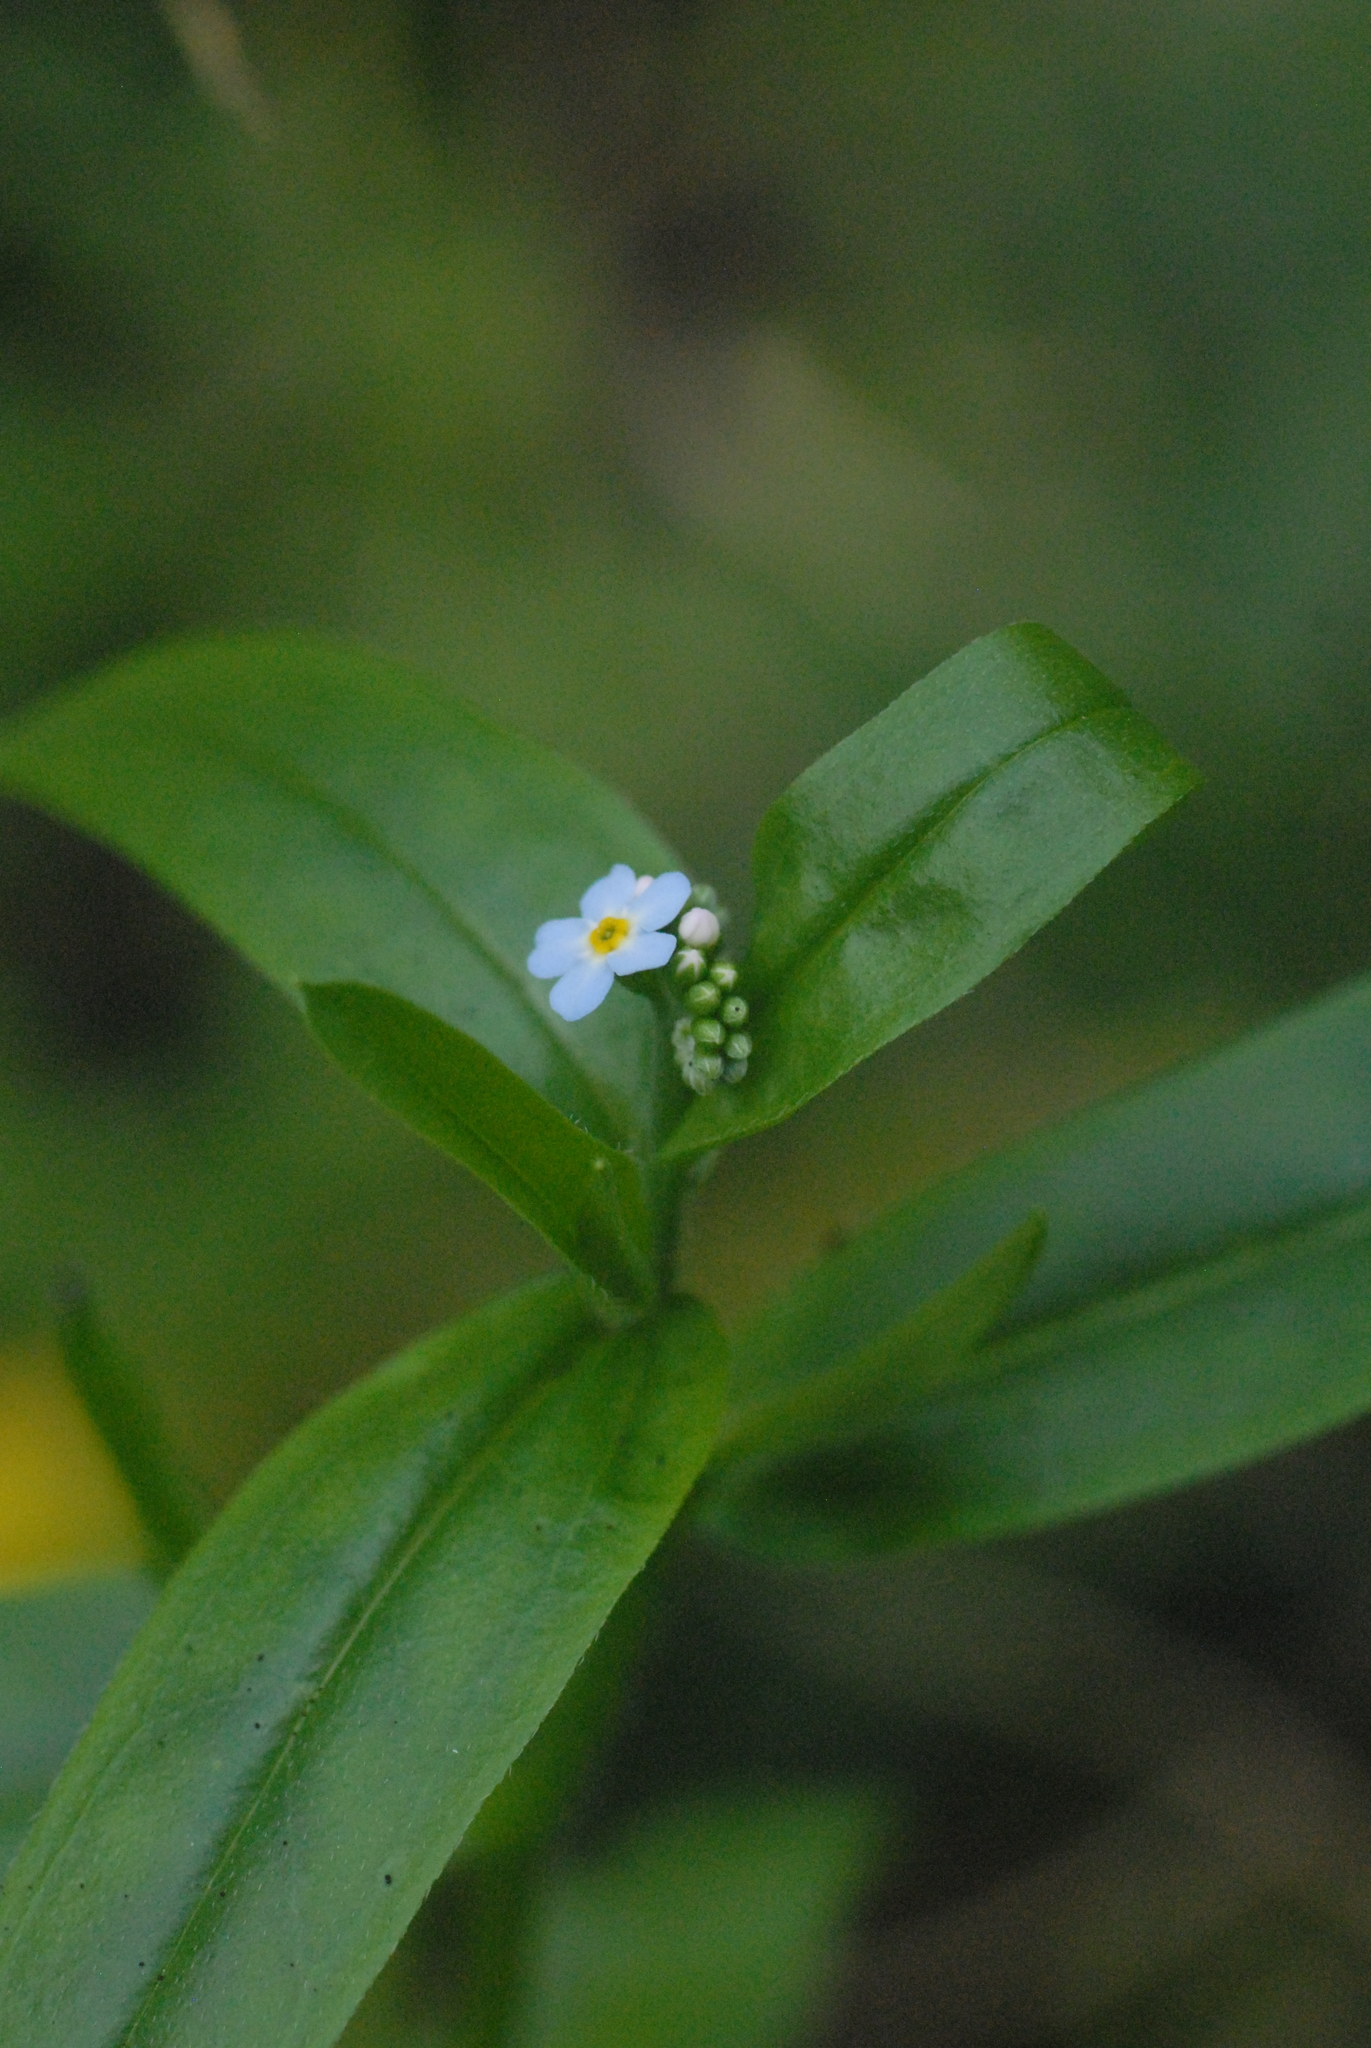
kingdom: Plantae
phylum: Tracheophyta
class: Magnoliopsida
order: Boraginales
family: Boraginaceae
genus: Myosotis
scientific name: Myosotis scorpioides
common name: Water forget-me-not
